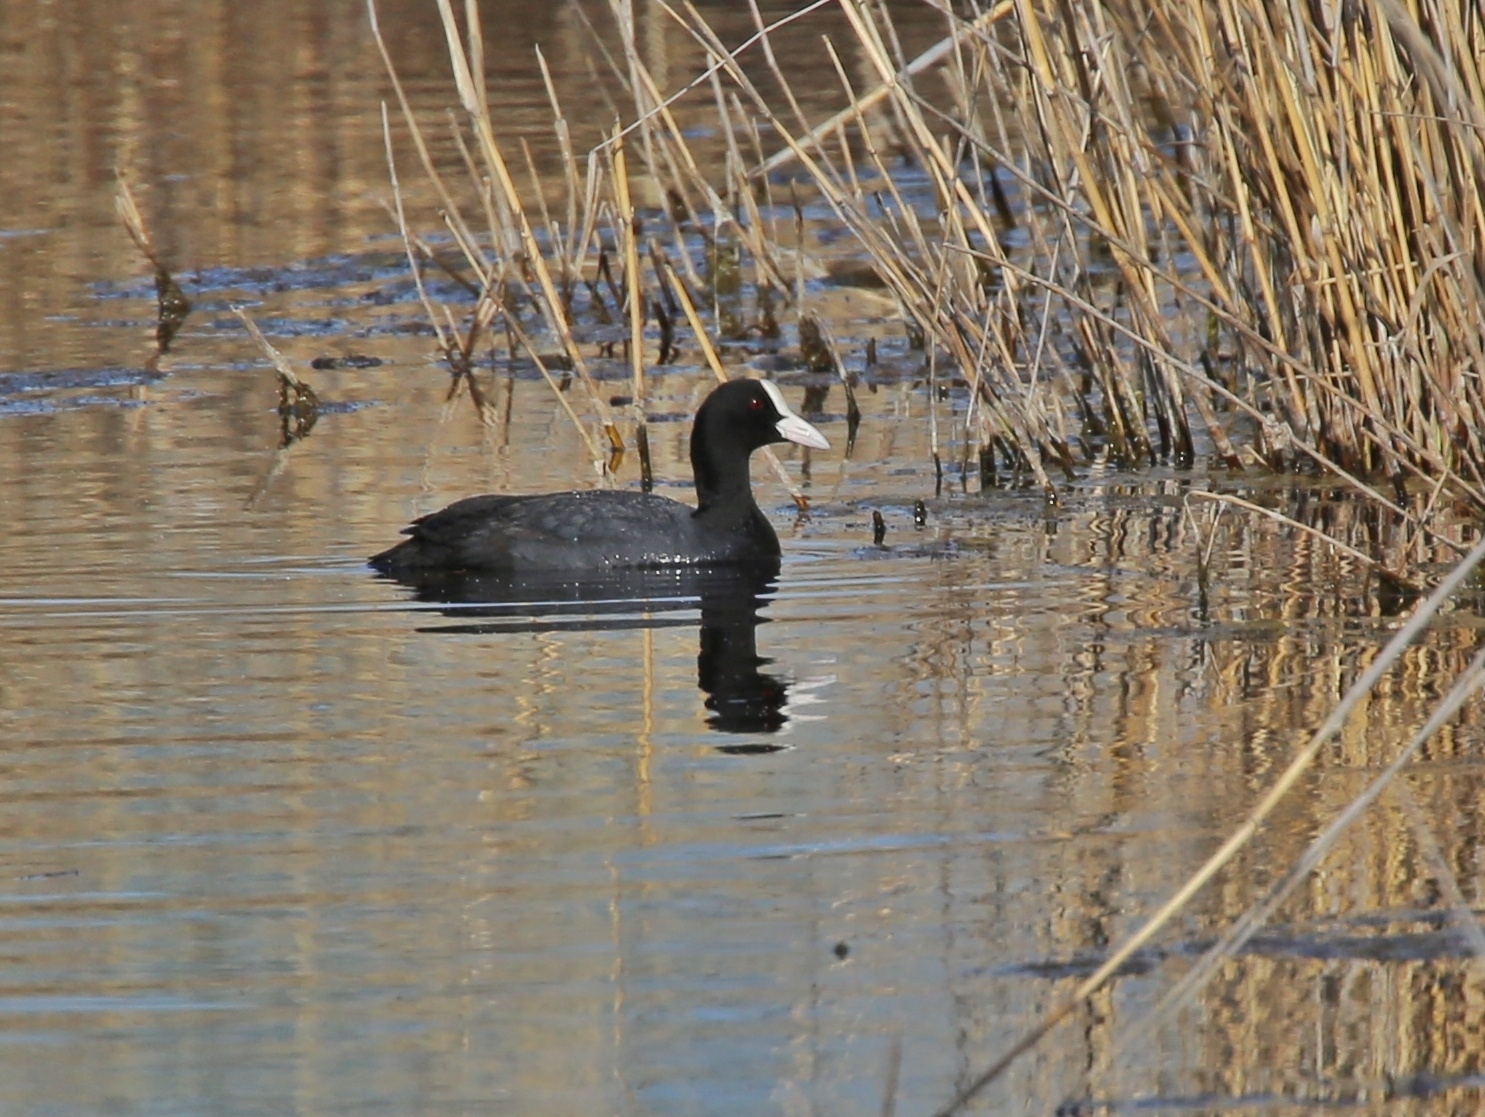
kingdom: Animalia
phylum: Chordata
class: Aves
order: Gruiformes
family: Rallidae
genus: Fulica
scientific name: Fulica atra
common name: Eurasian coot
